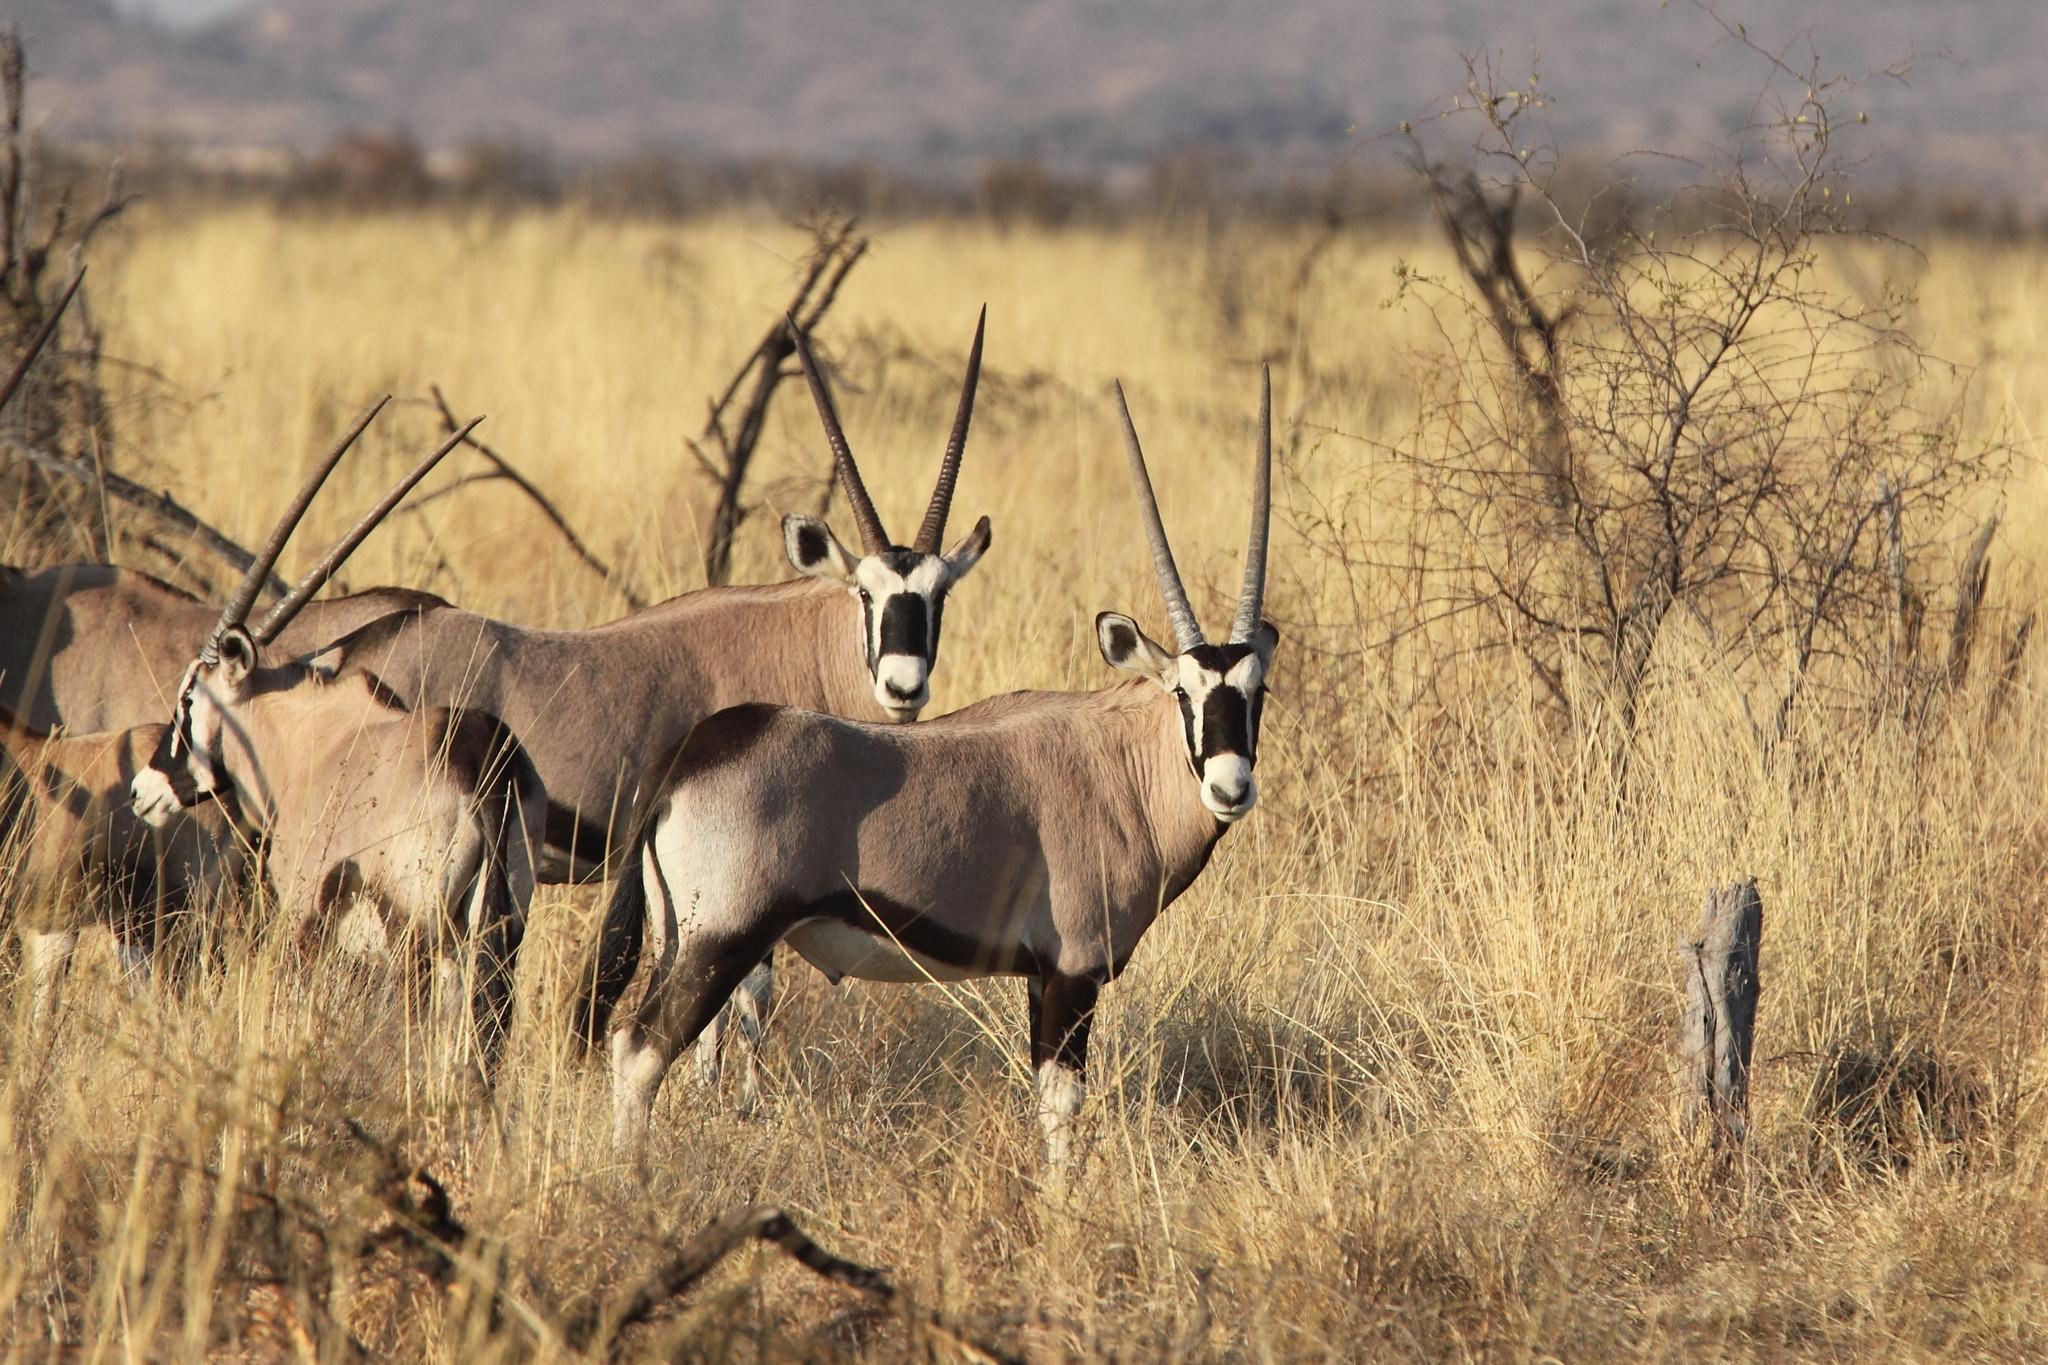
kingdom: Animalia
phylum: Chordata
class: Mammalia
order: Artiodactyla
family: Bovidae
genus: Oryx
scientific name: Oryx gazella
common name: Gemsbok
